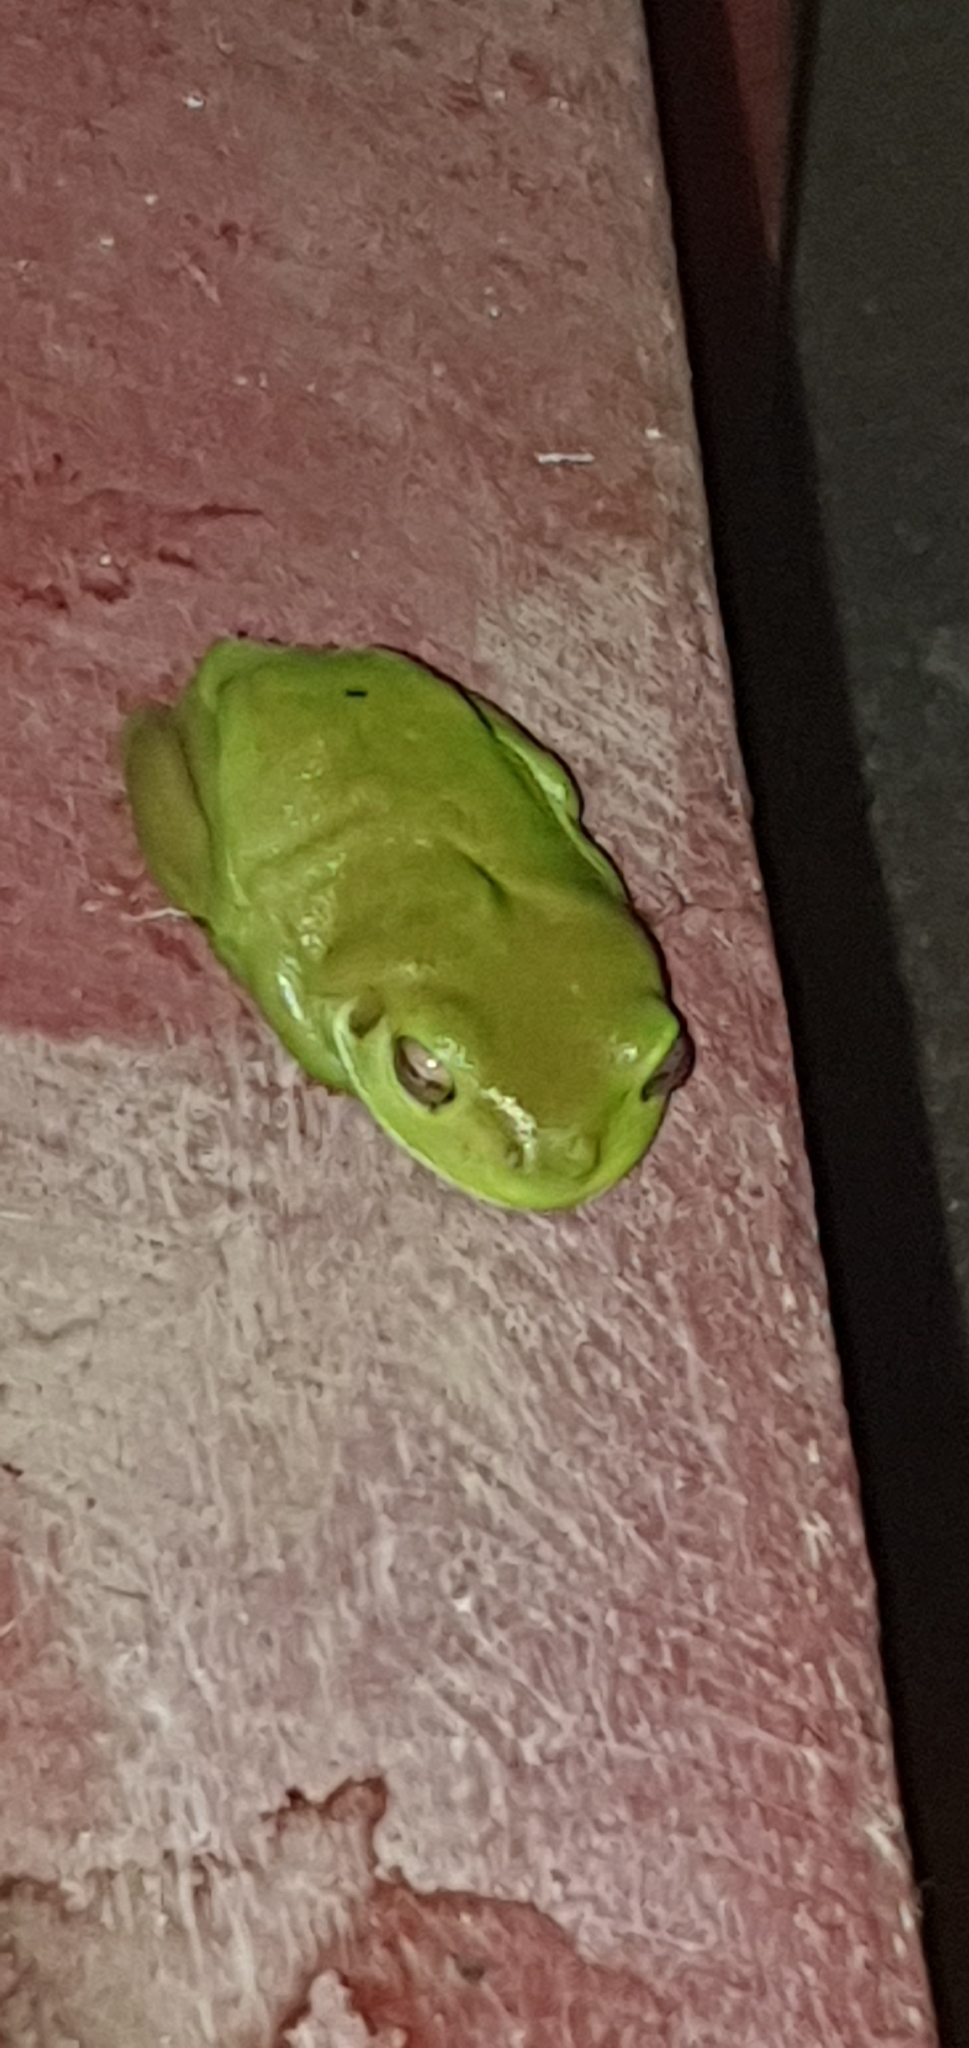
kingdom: Animalia
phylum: Chordata
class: Amphibia
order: Anura
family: Pelodryadidae
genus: Ranoidea
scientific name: Ranoidea caerulea
